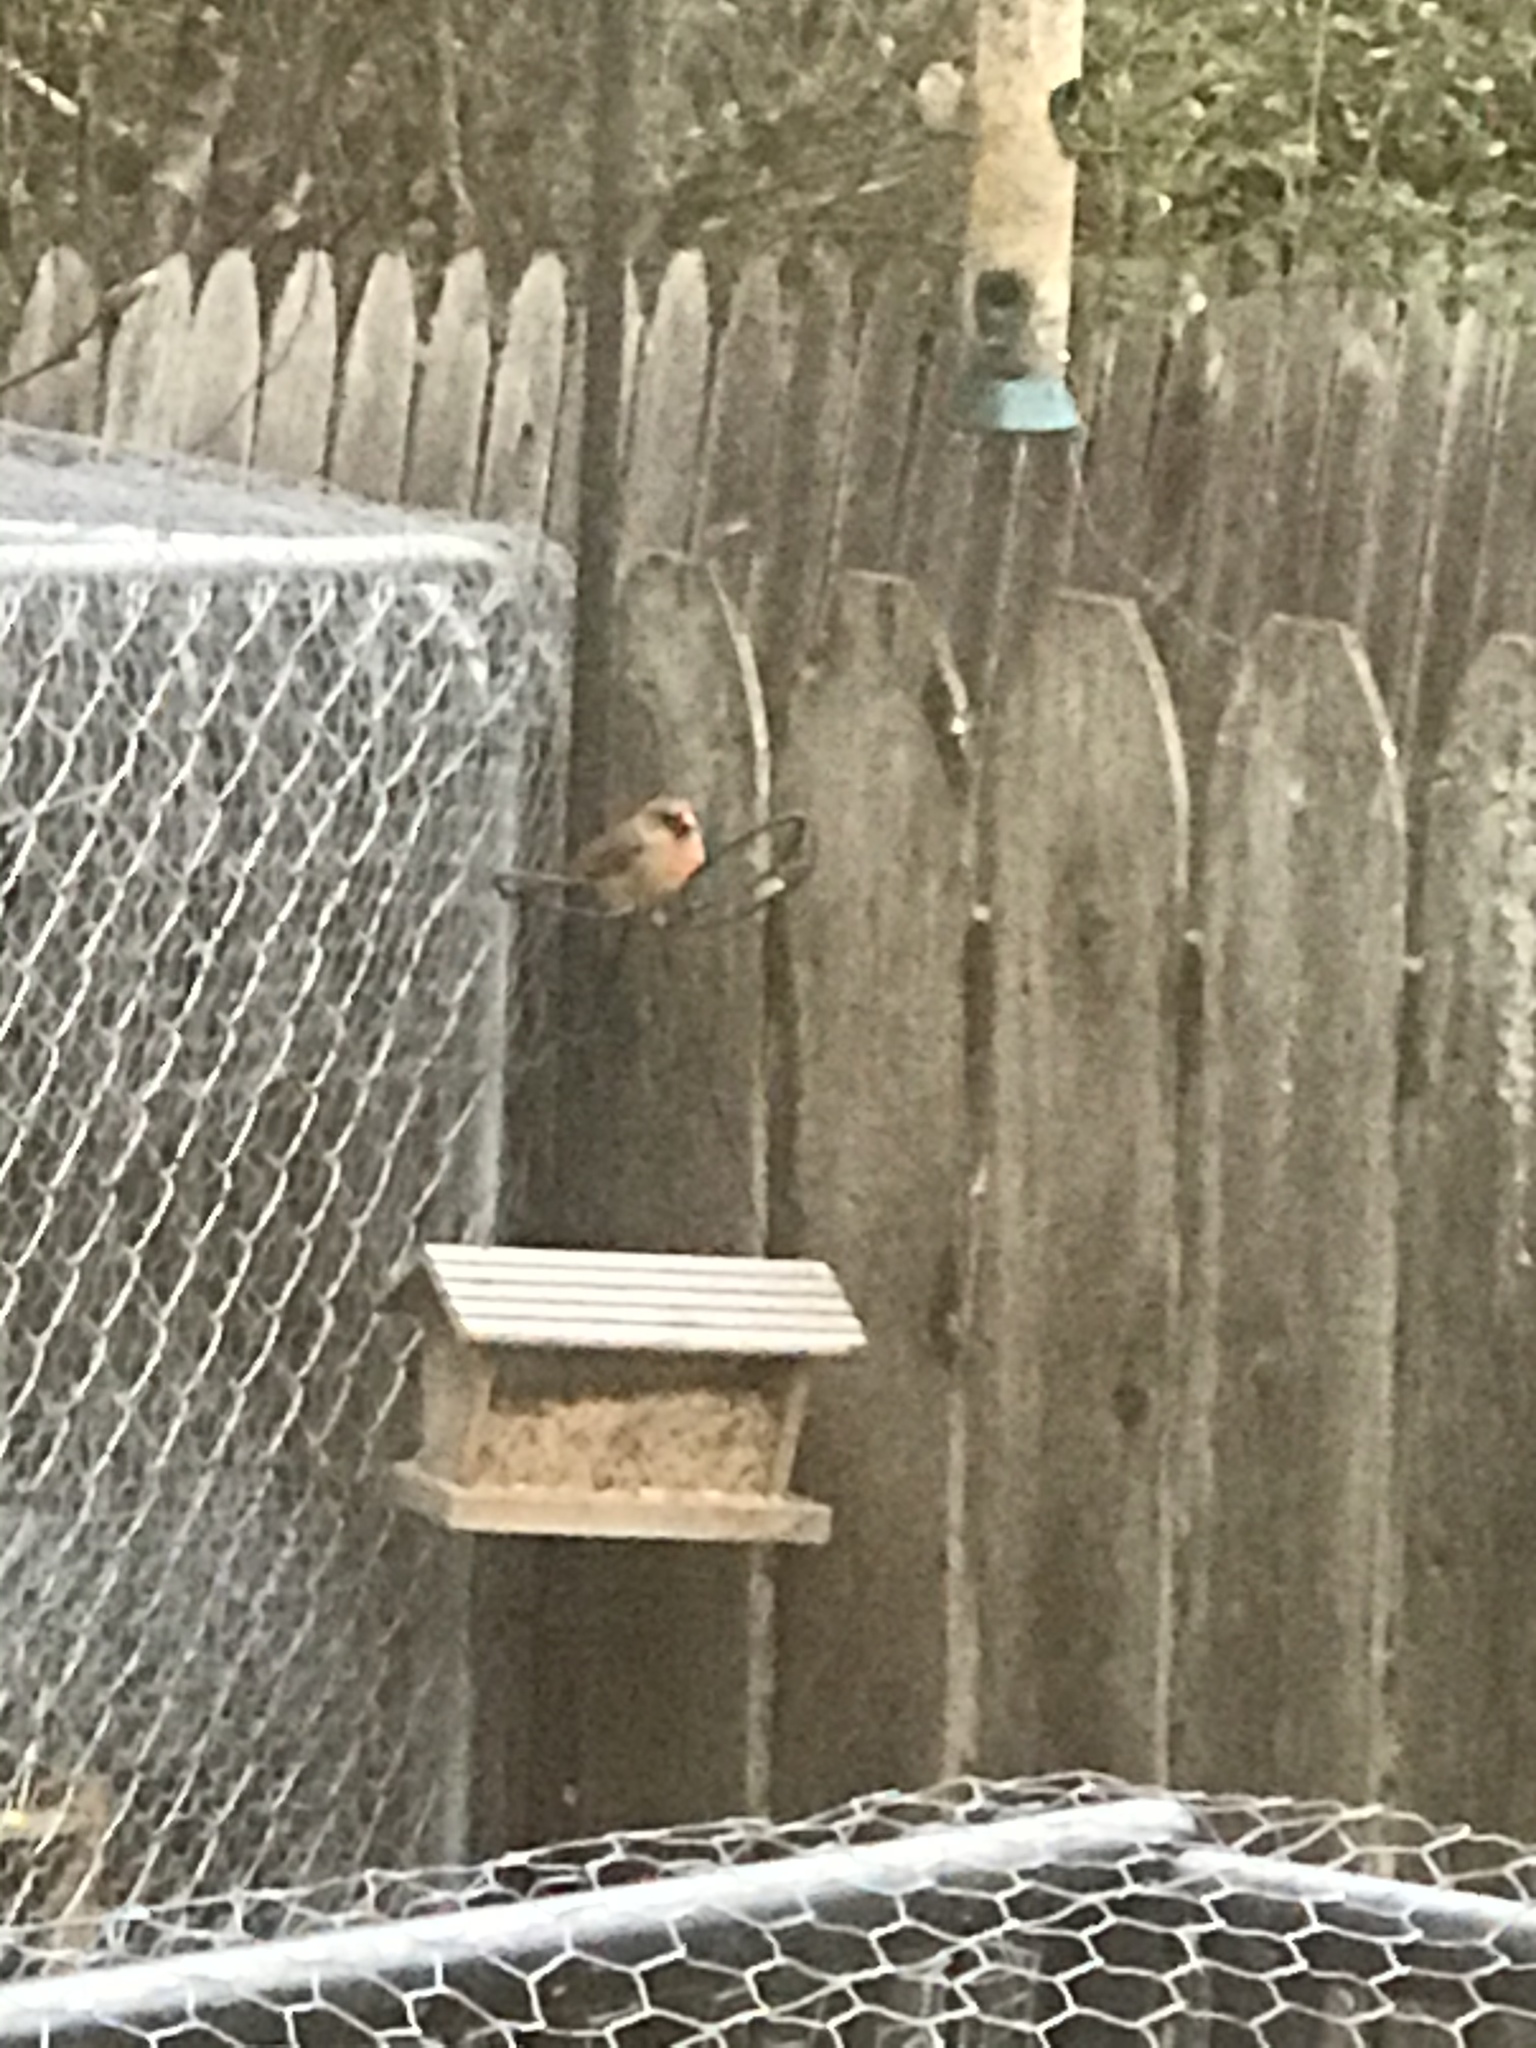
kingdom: Animalia
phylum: Chordata
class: Aves
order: Passeriformes
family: Cardinalidae
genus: Cardinalis
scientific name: Cardinalis cardinalis
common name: Northern cardinal
